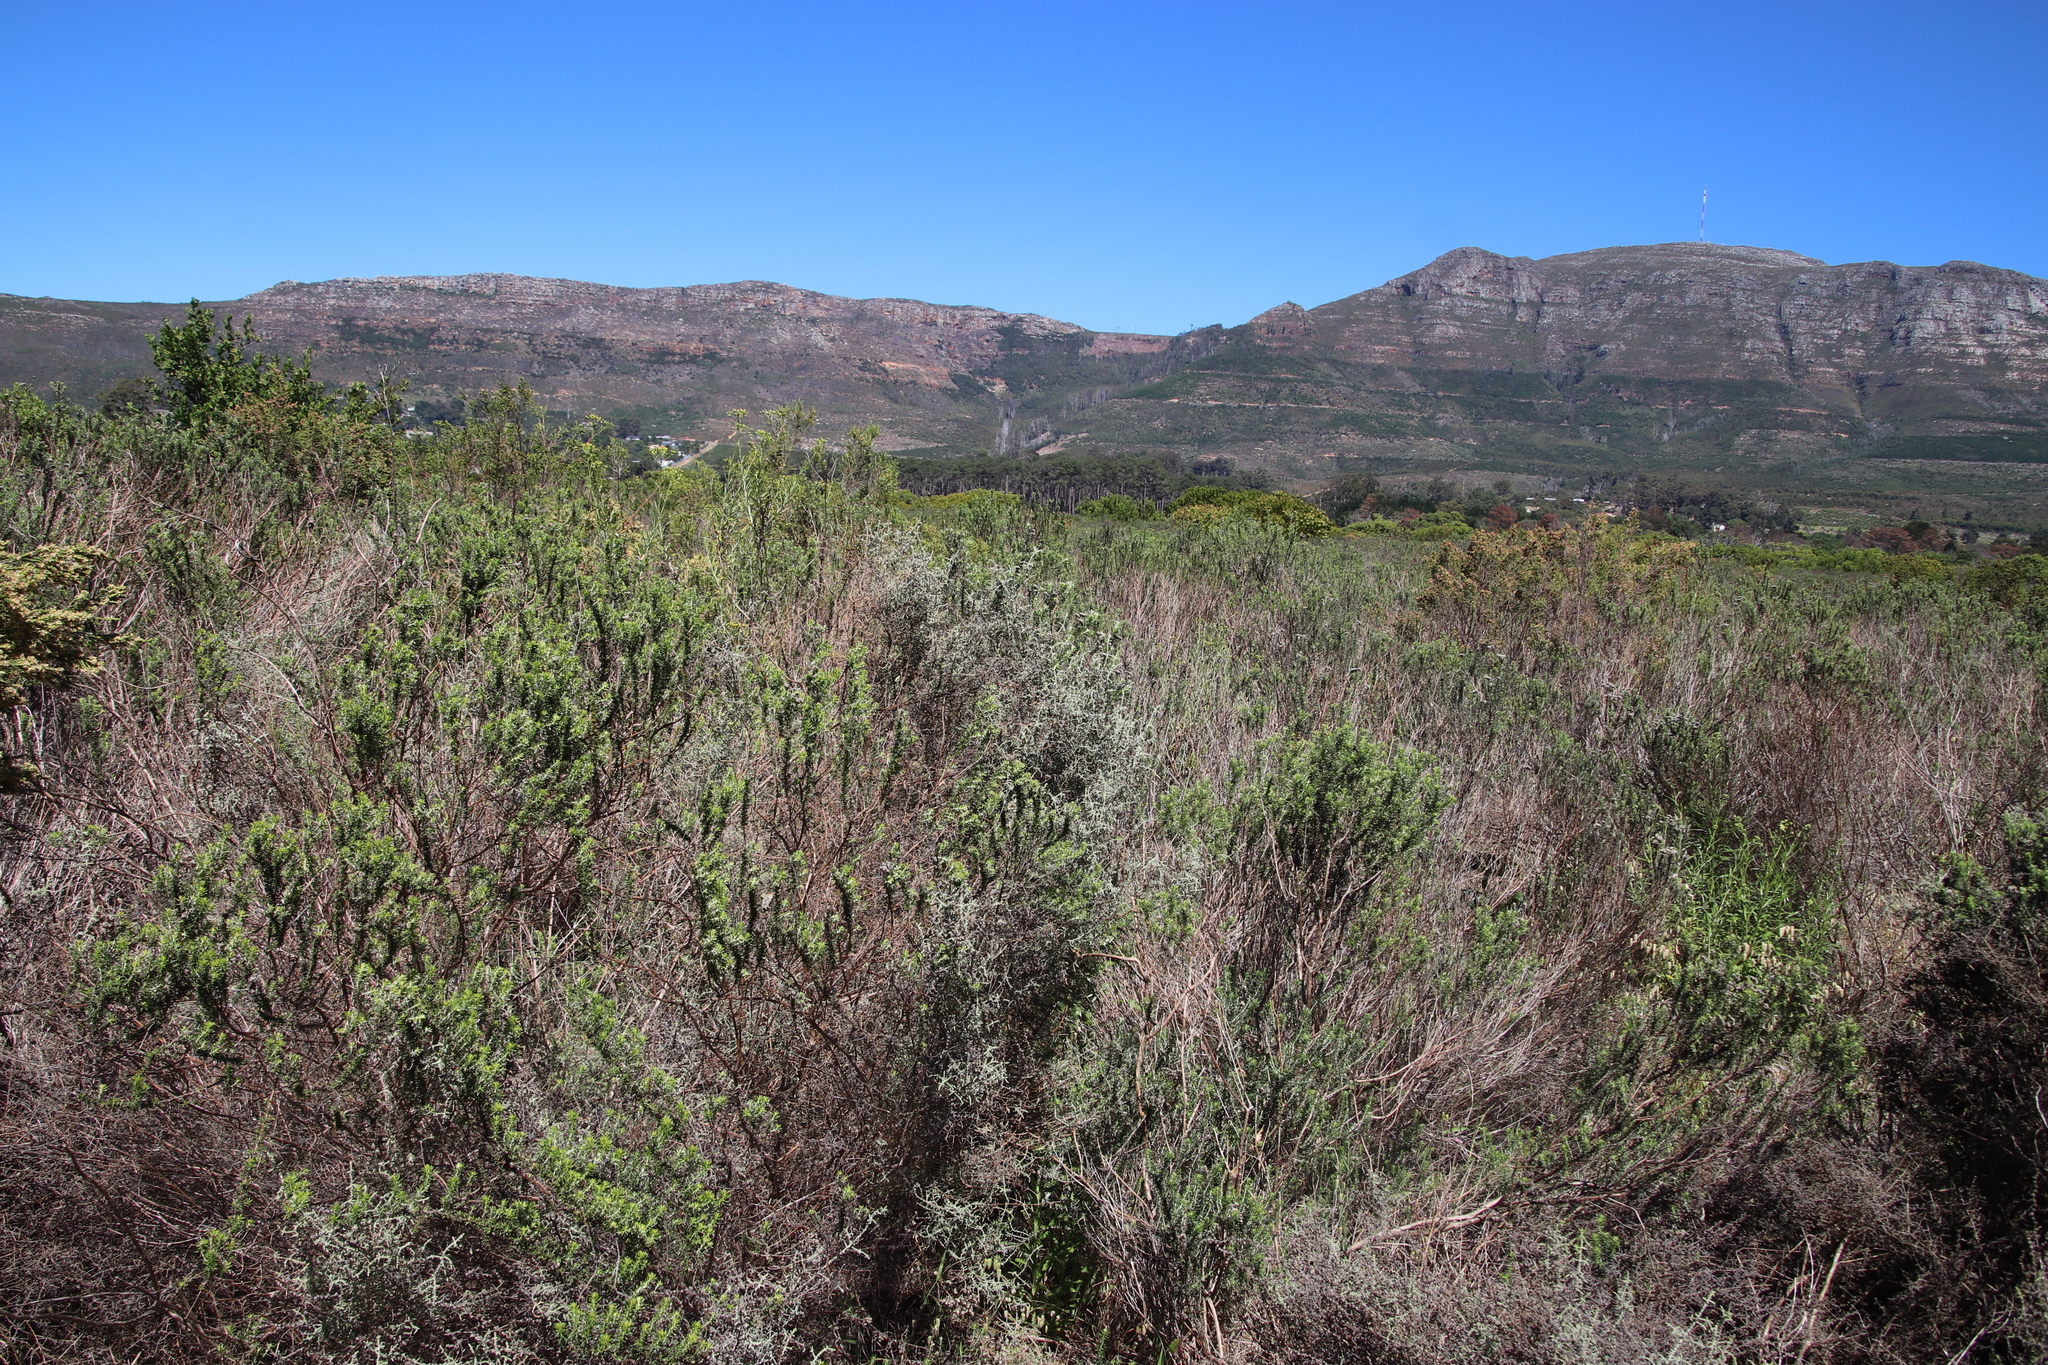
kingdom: Plantae
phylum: Tracheophyta
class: Magnoliopsida
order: Asterales
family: Asteraceae
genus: Metalasia
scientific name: Metalasia densa
